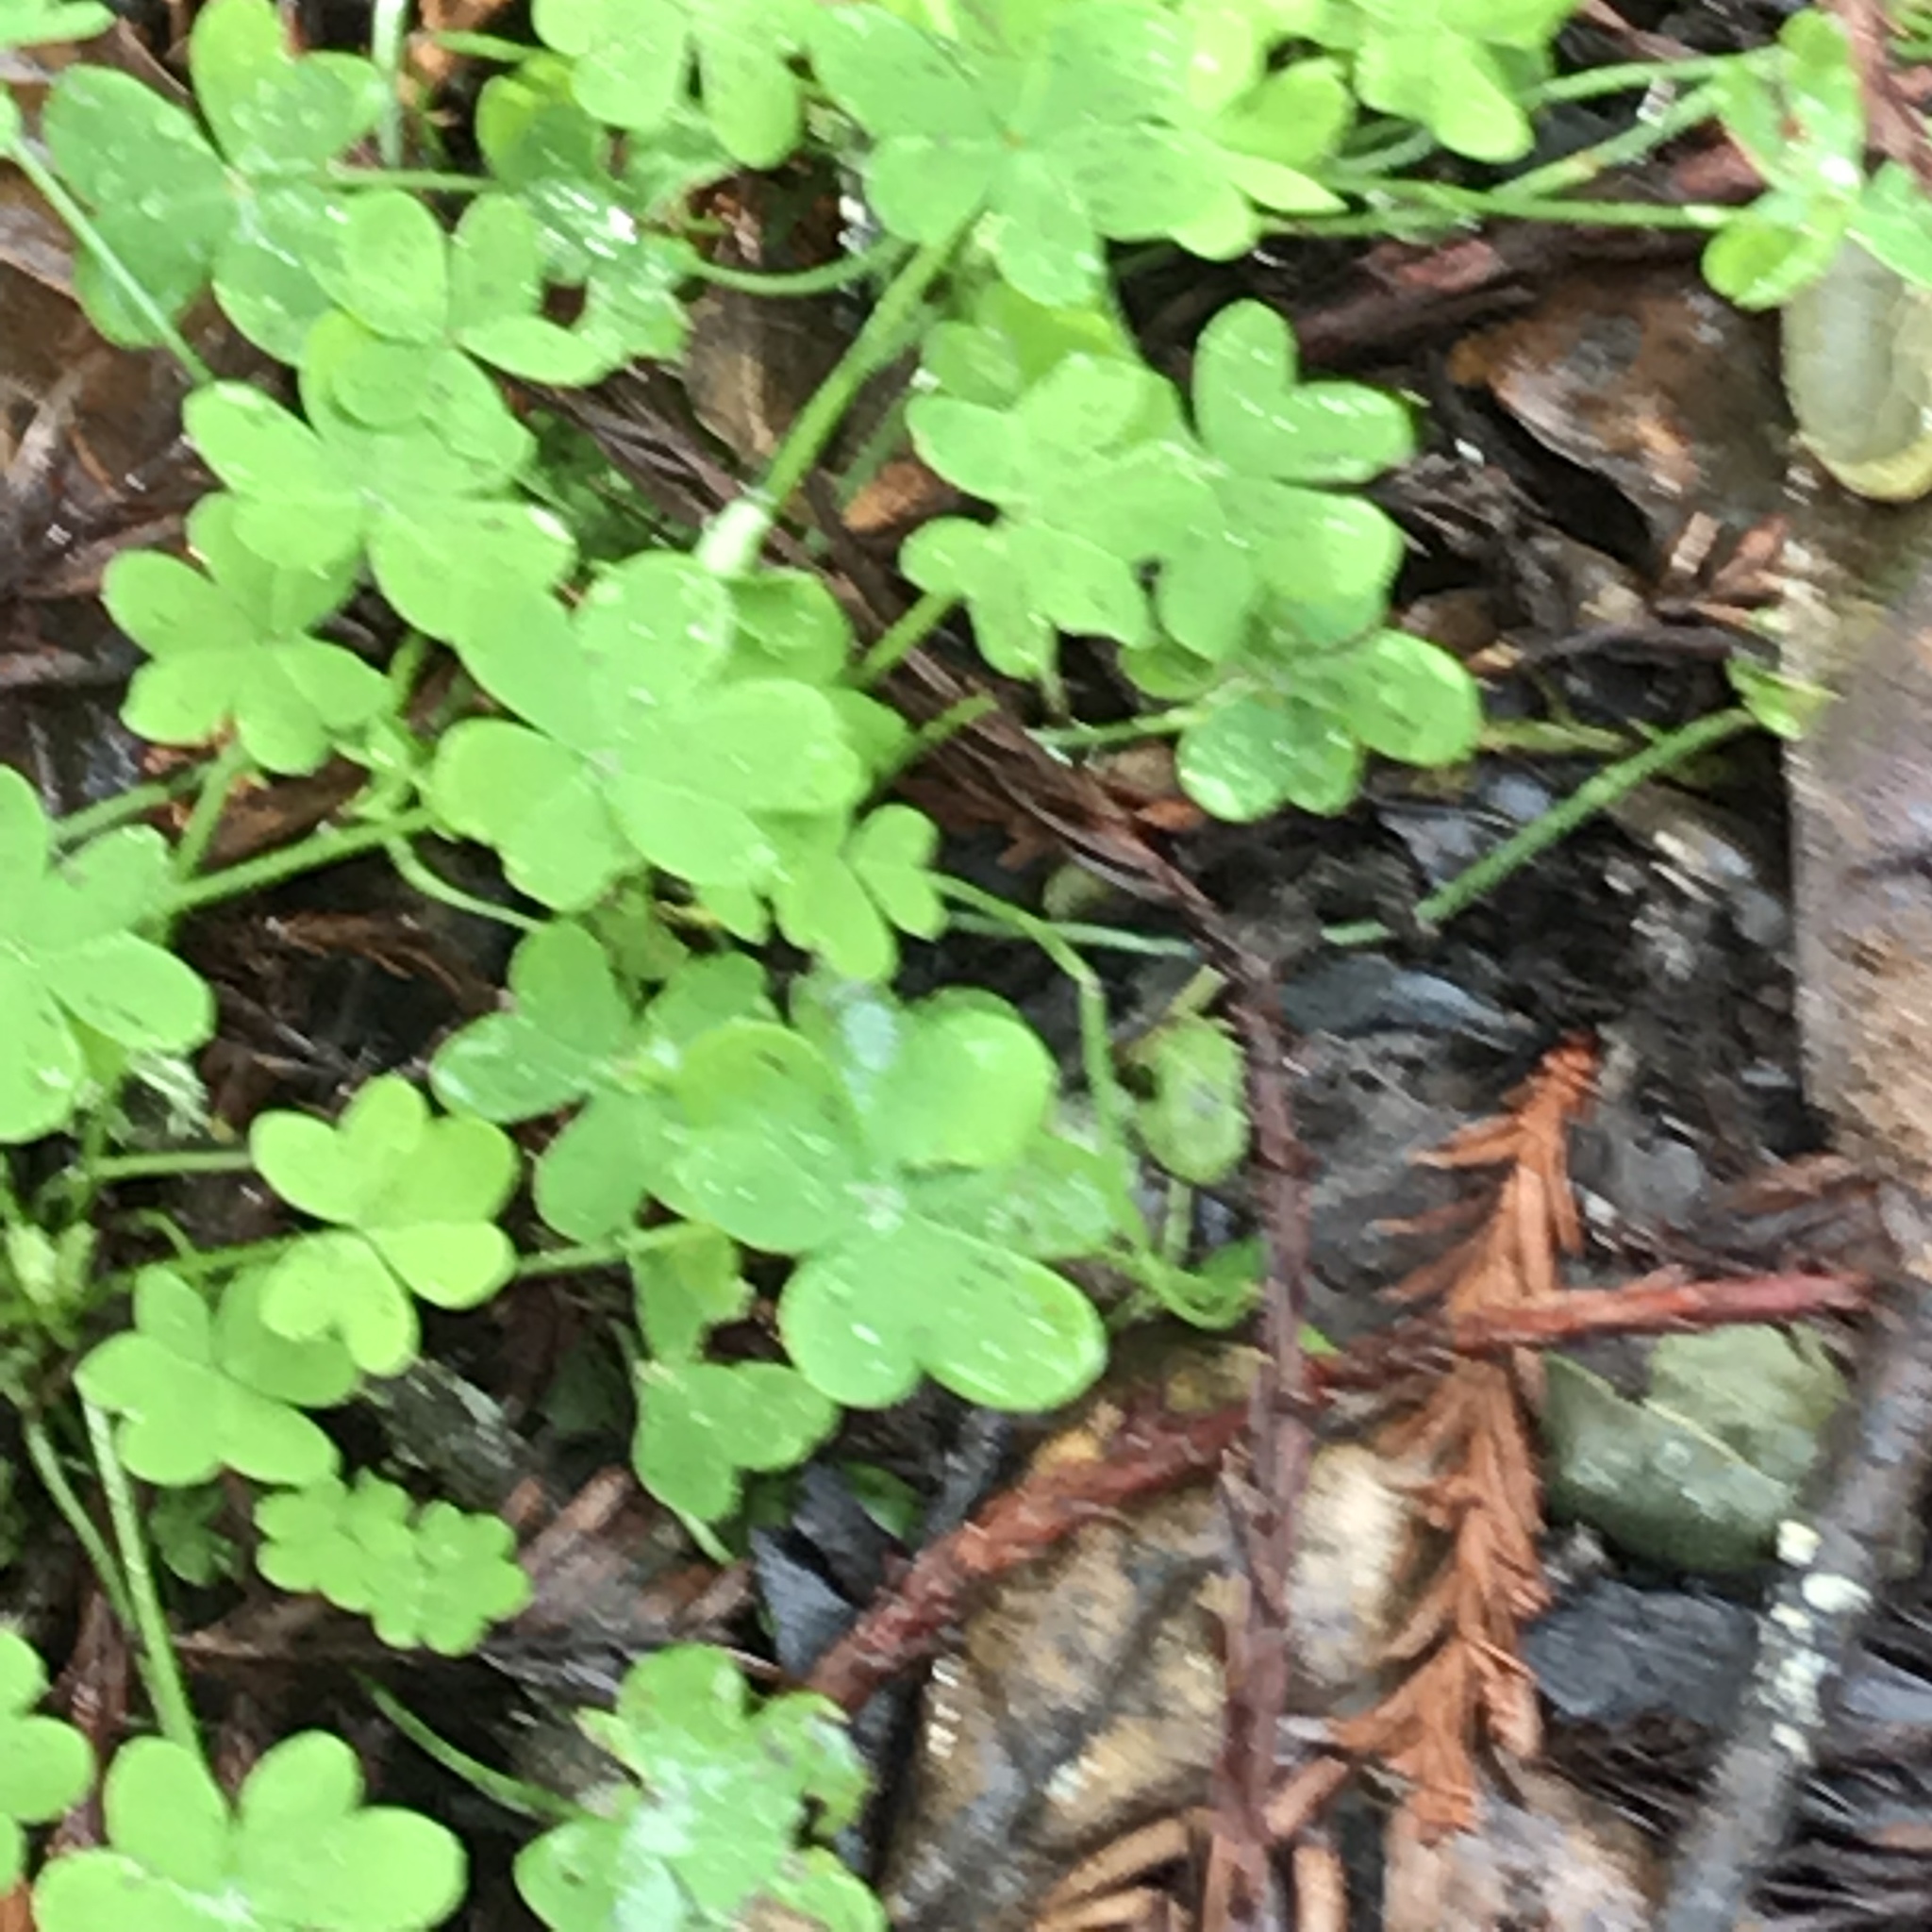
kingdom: Plantae
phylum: Tracheophyta
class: Magnoliopsida
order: Oxalidales
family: Oxalidaceae
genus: Oxalis
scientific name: Oxalis pes-caprae
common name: Bermuda-buttercup
